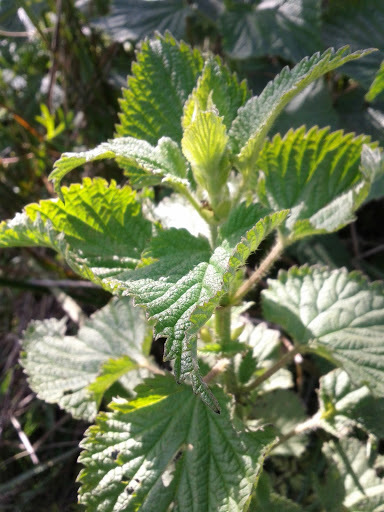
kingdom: Plantae
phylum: Tracheophyta
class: Magnoliopsida
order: Rosales
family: Urticaceae
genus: Urtica
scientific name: Urtica dioica
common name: Common nettle
